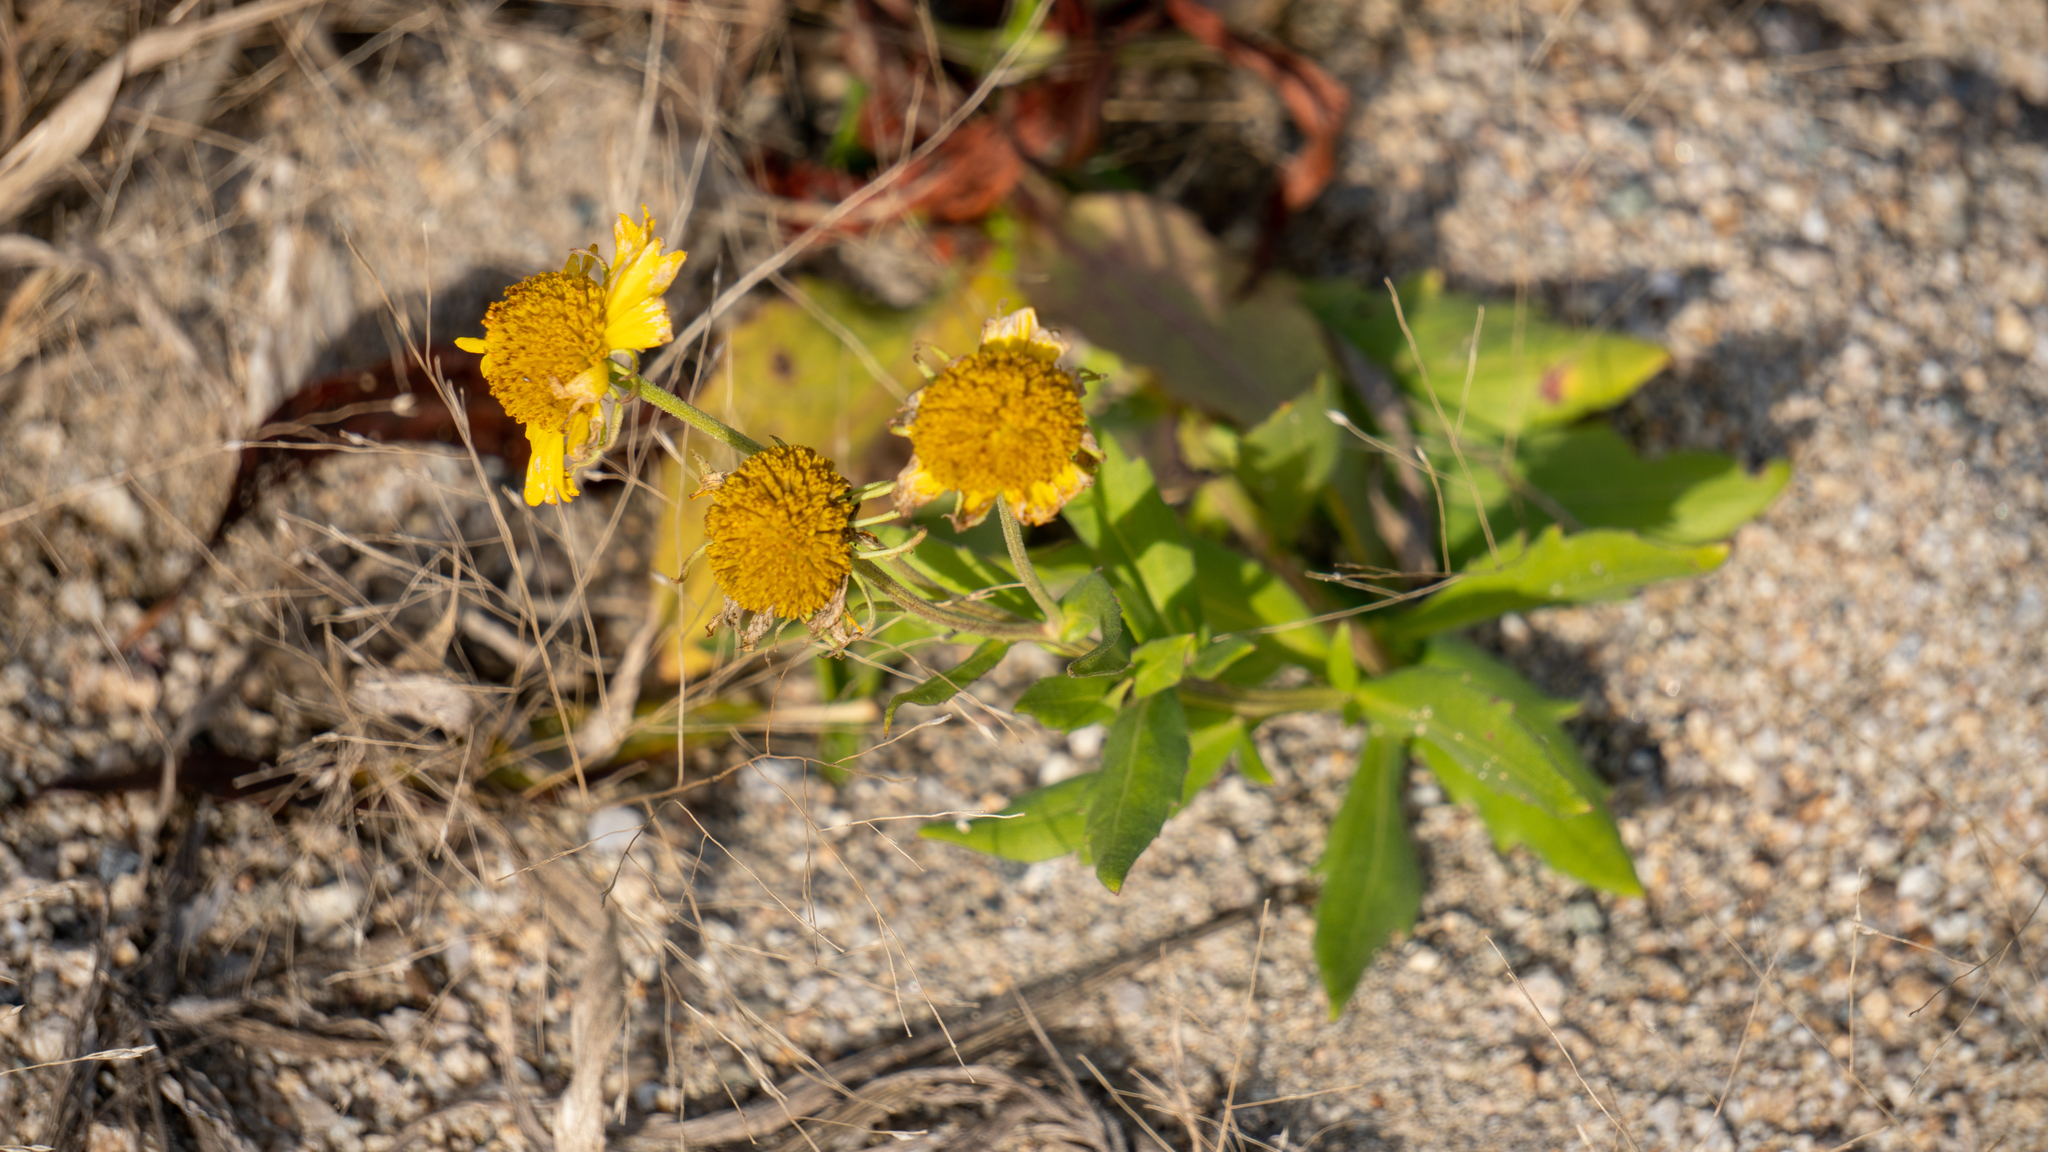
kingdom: Plantae
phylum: Tracheophyta
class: Magnoliopsida
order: Asterales
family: Asteraceae
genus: Helenium
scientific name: Helenium autumnale
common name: Sneezeweed
